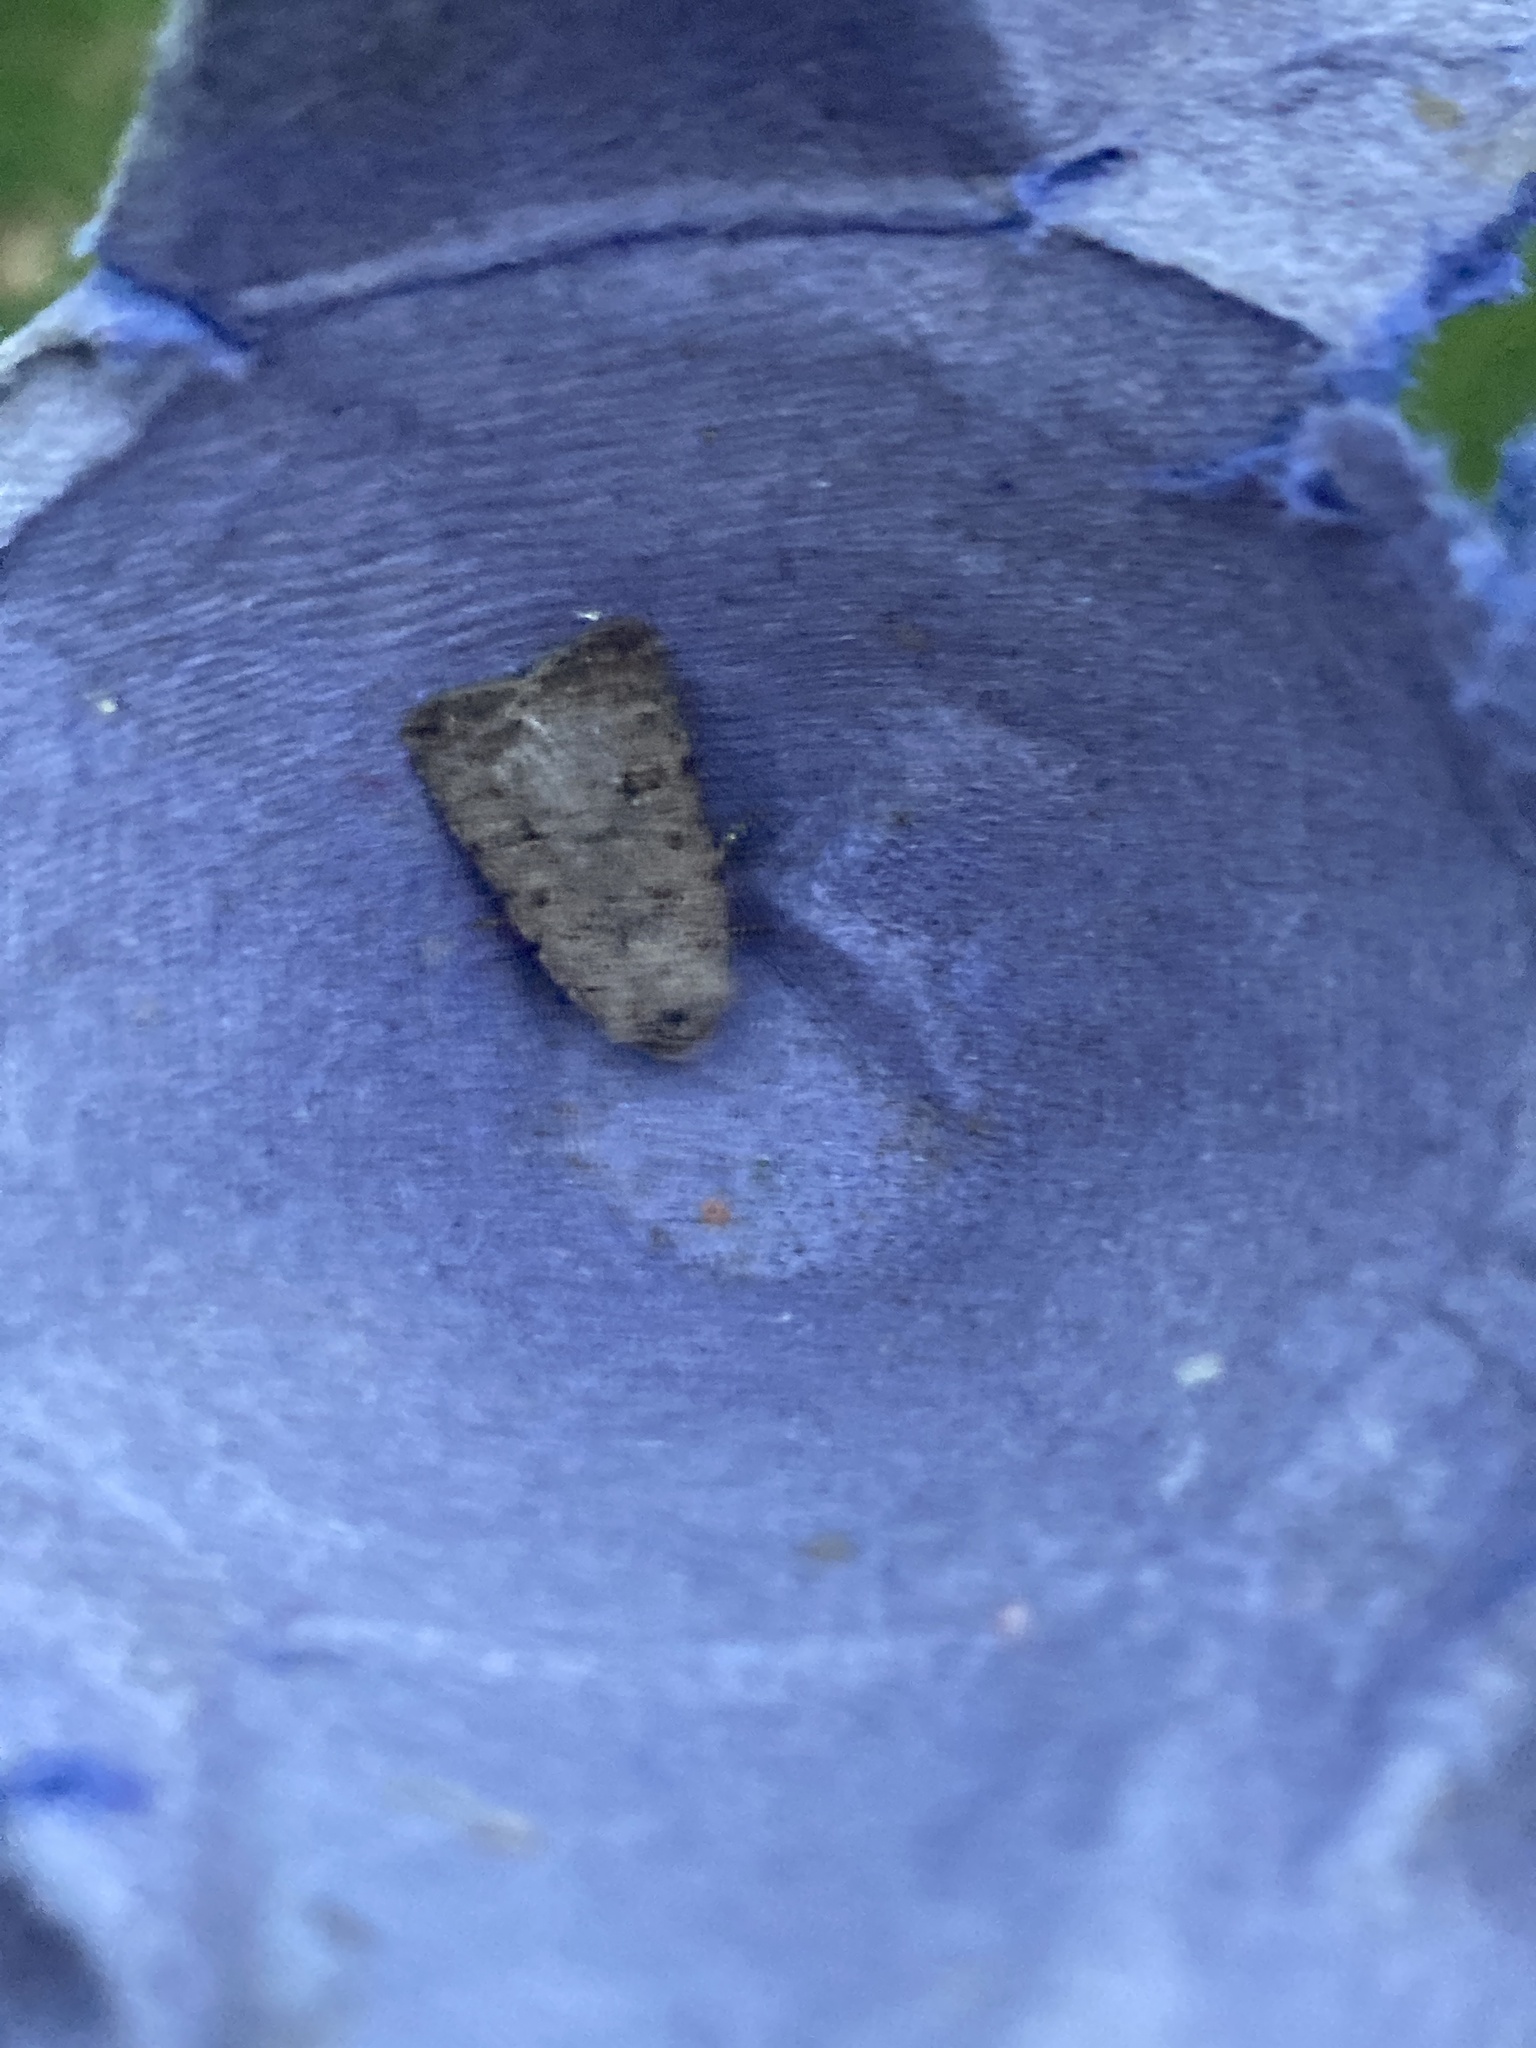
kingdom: Animalia
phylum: Arthropoda
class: Insecta
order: Lepidoptera
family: Noctuidae
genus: Caradrina
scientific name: Caradrina clavipalpis
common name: Pale mottled willow
